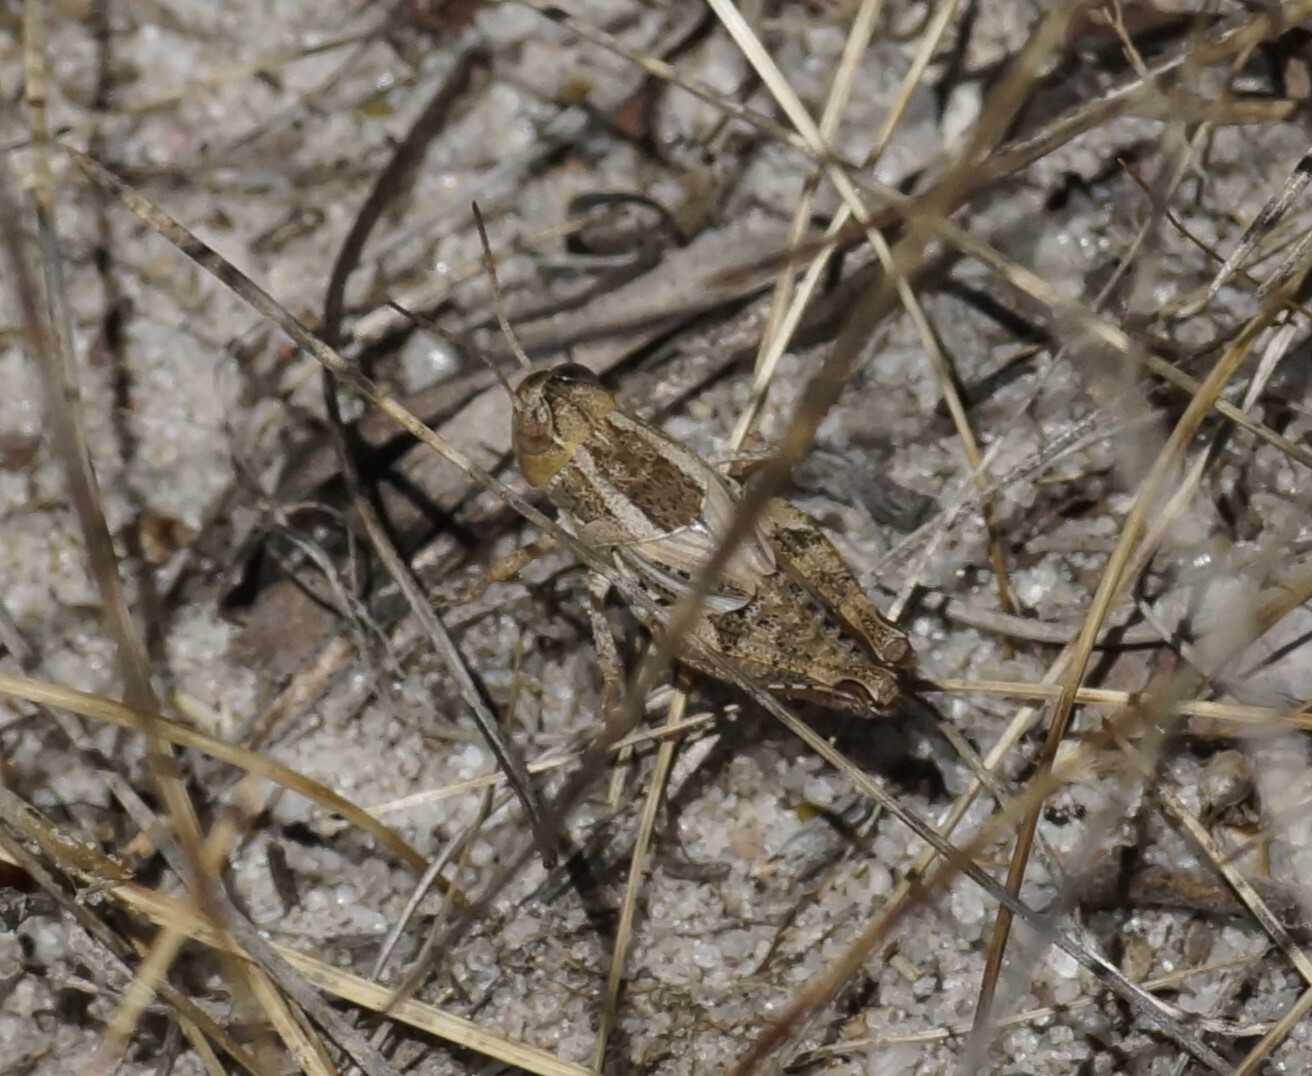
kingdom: Animalia
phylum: Arthropoda
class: Insecta
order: Orthoptera
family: Acrididae
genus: Brachyexarna
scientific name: Brachyexarna lobipennis
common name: Stripe-winged meadow grasshopper
